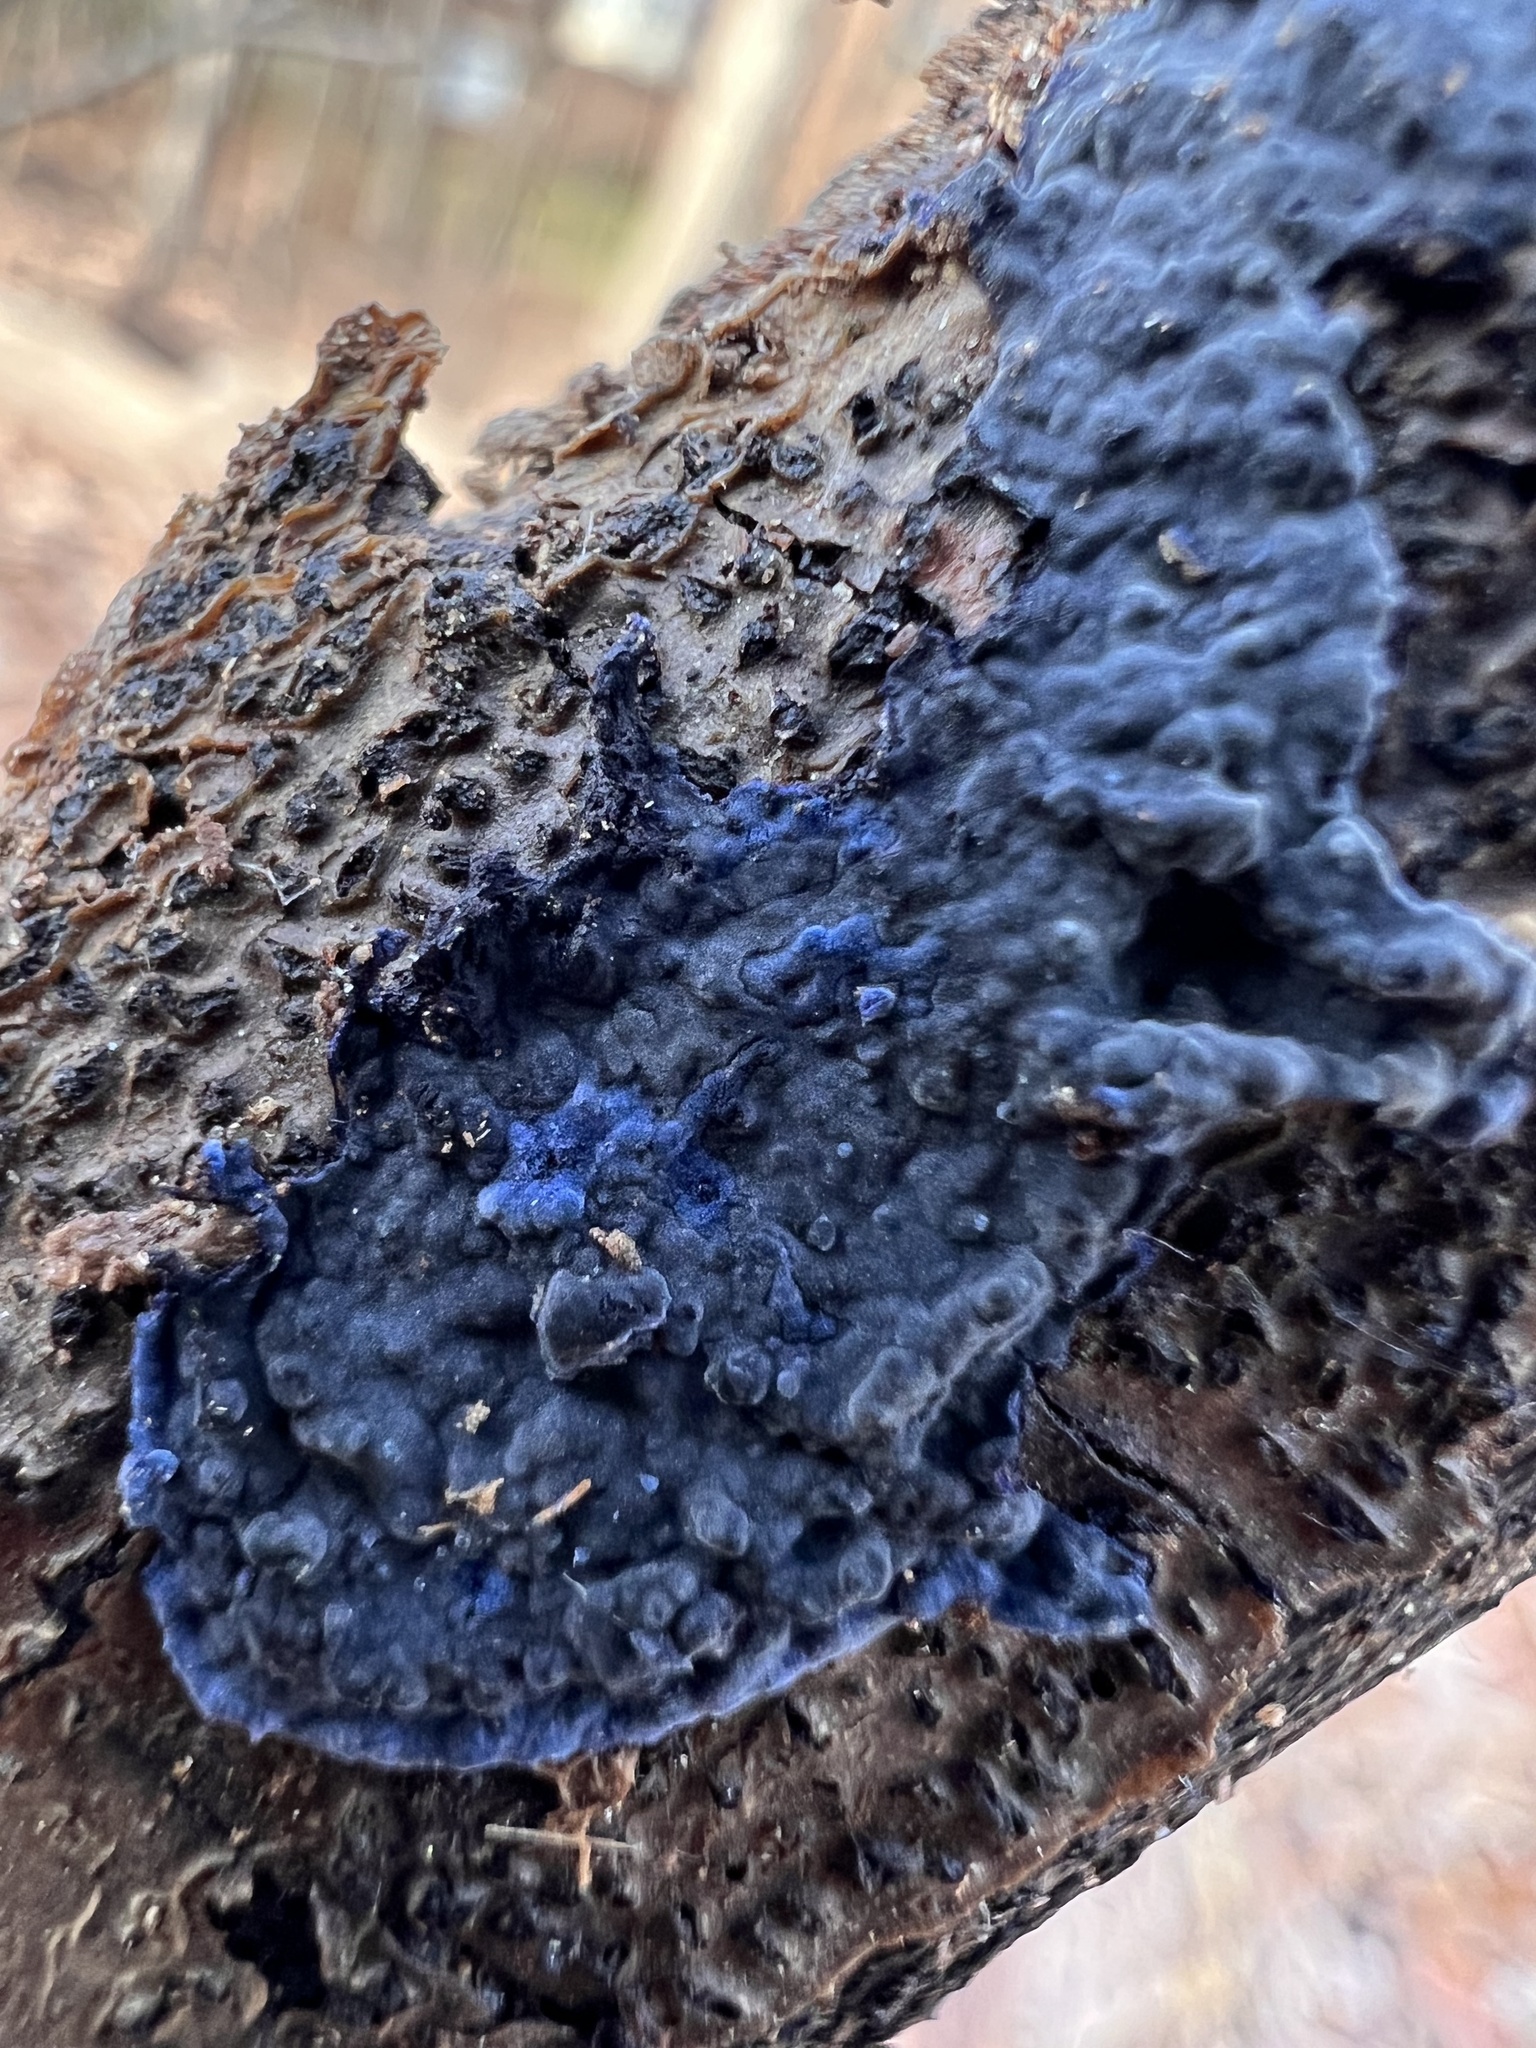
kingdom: Fungi
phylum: Basidiomycota
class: Agaricomycetes
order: Polyporales
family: Phanerochaetaceae
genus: Terana
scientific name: Terana coerulea
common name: Cobalt crust
